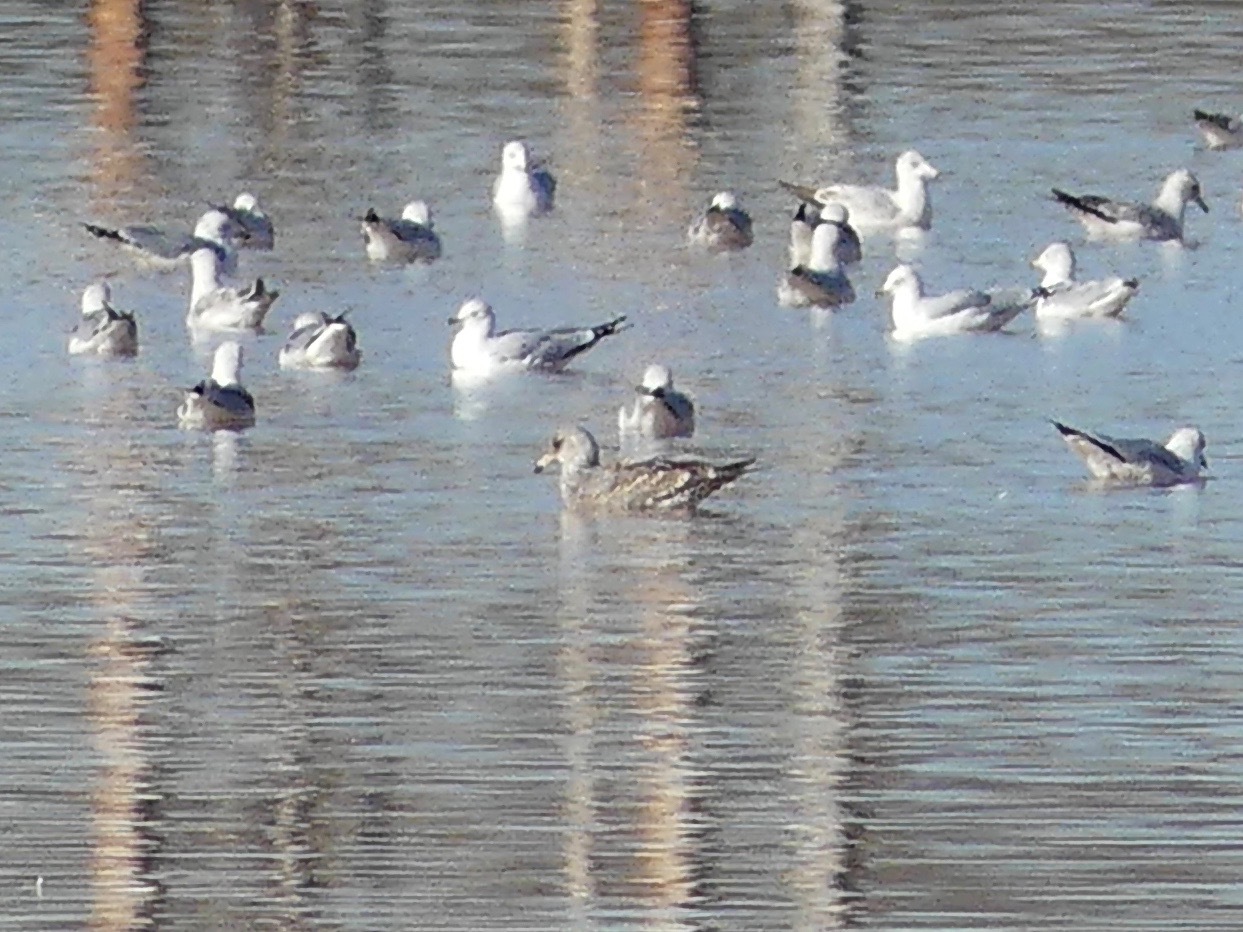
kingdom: Animalia
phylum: Chordata
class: Aves
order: Charadriiformes
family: Laridae
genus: Larus
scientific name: Larus californicus
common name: California gull
